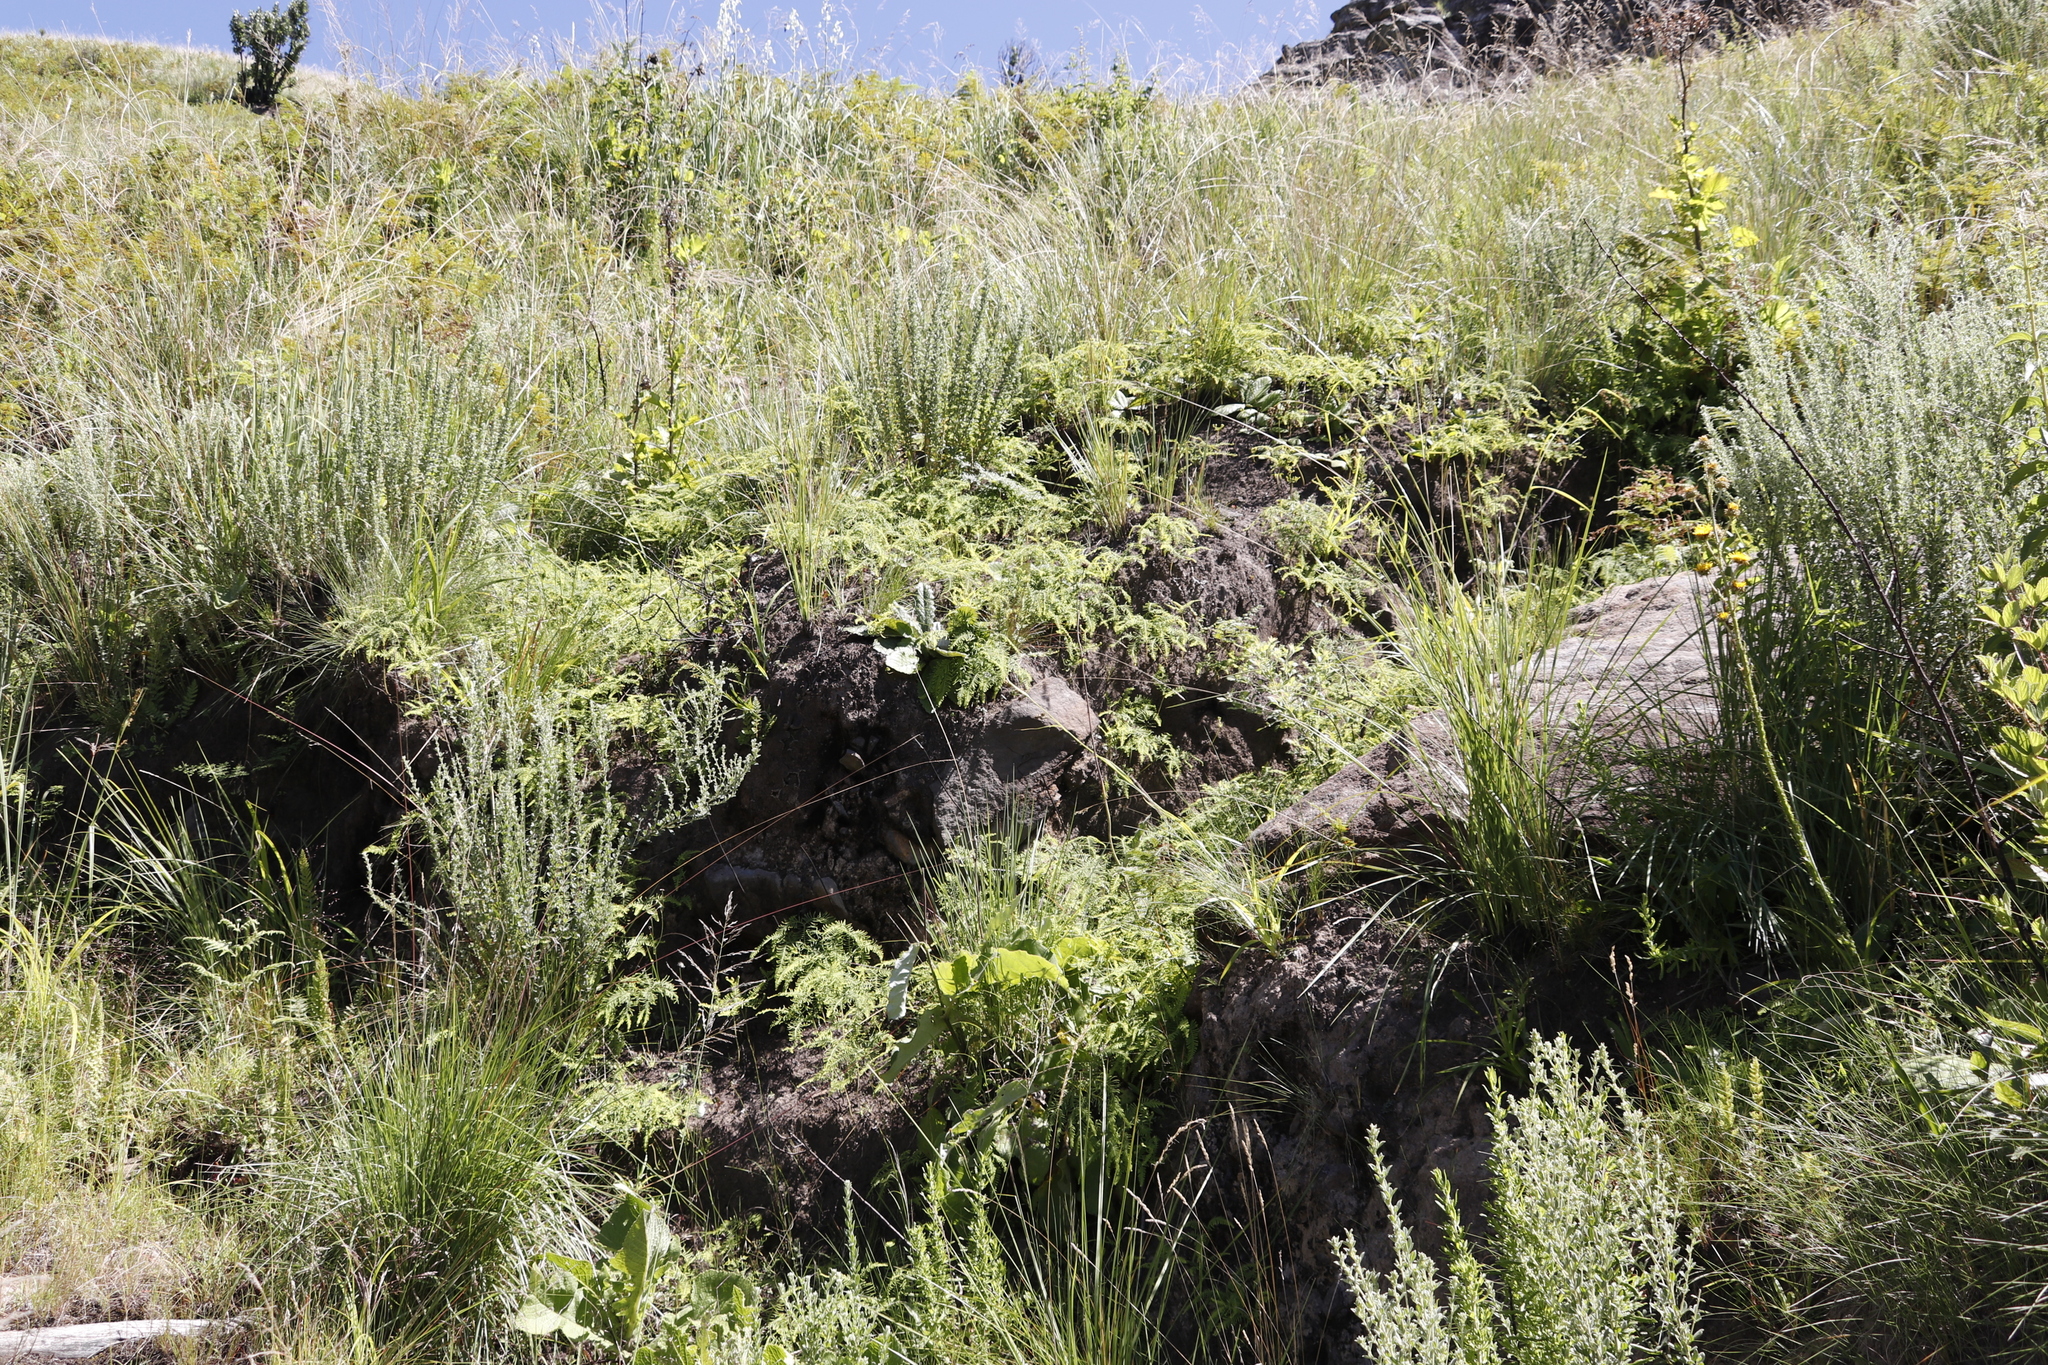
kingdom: Plantae
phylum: Tracheophyta
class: Polypodiopsida
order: Gleicheniales
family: Gleicheniaceae
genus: Sticherus
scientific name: Sticherus umbraculifer
